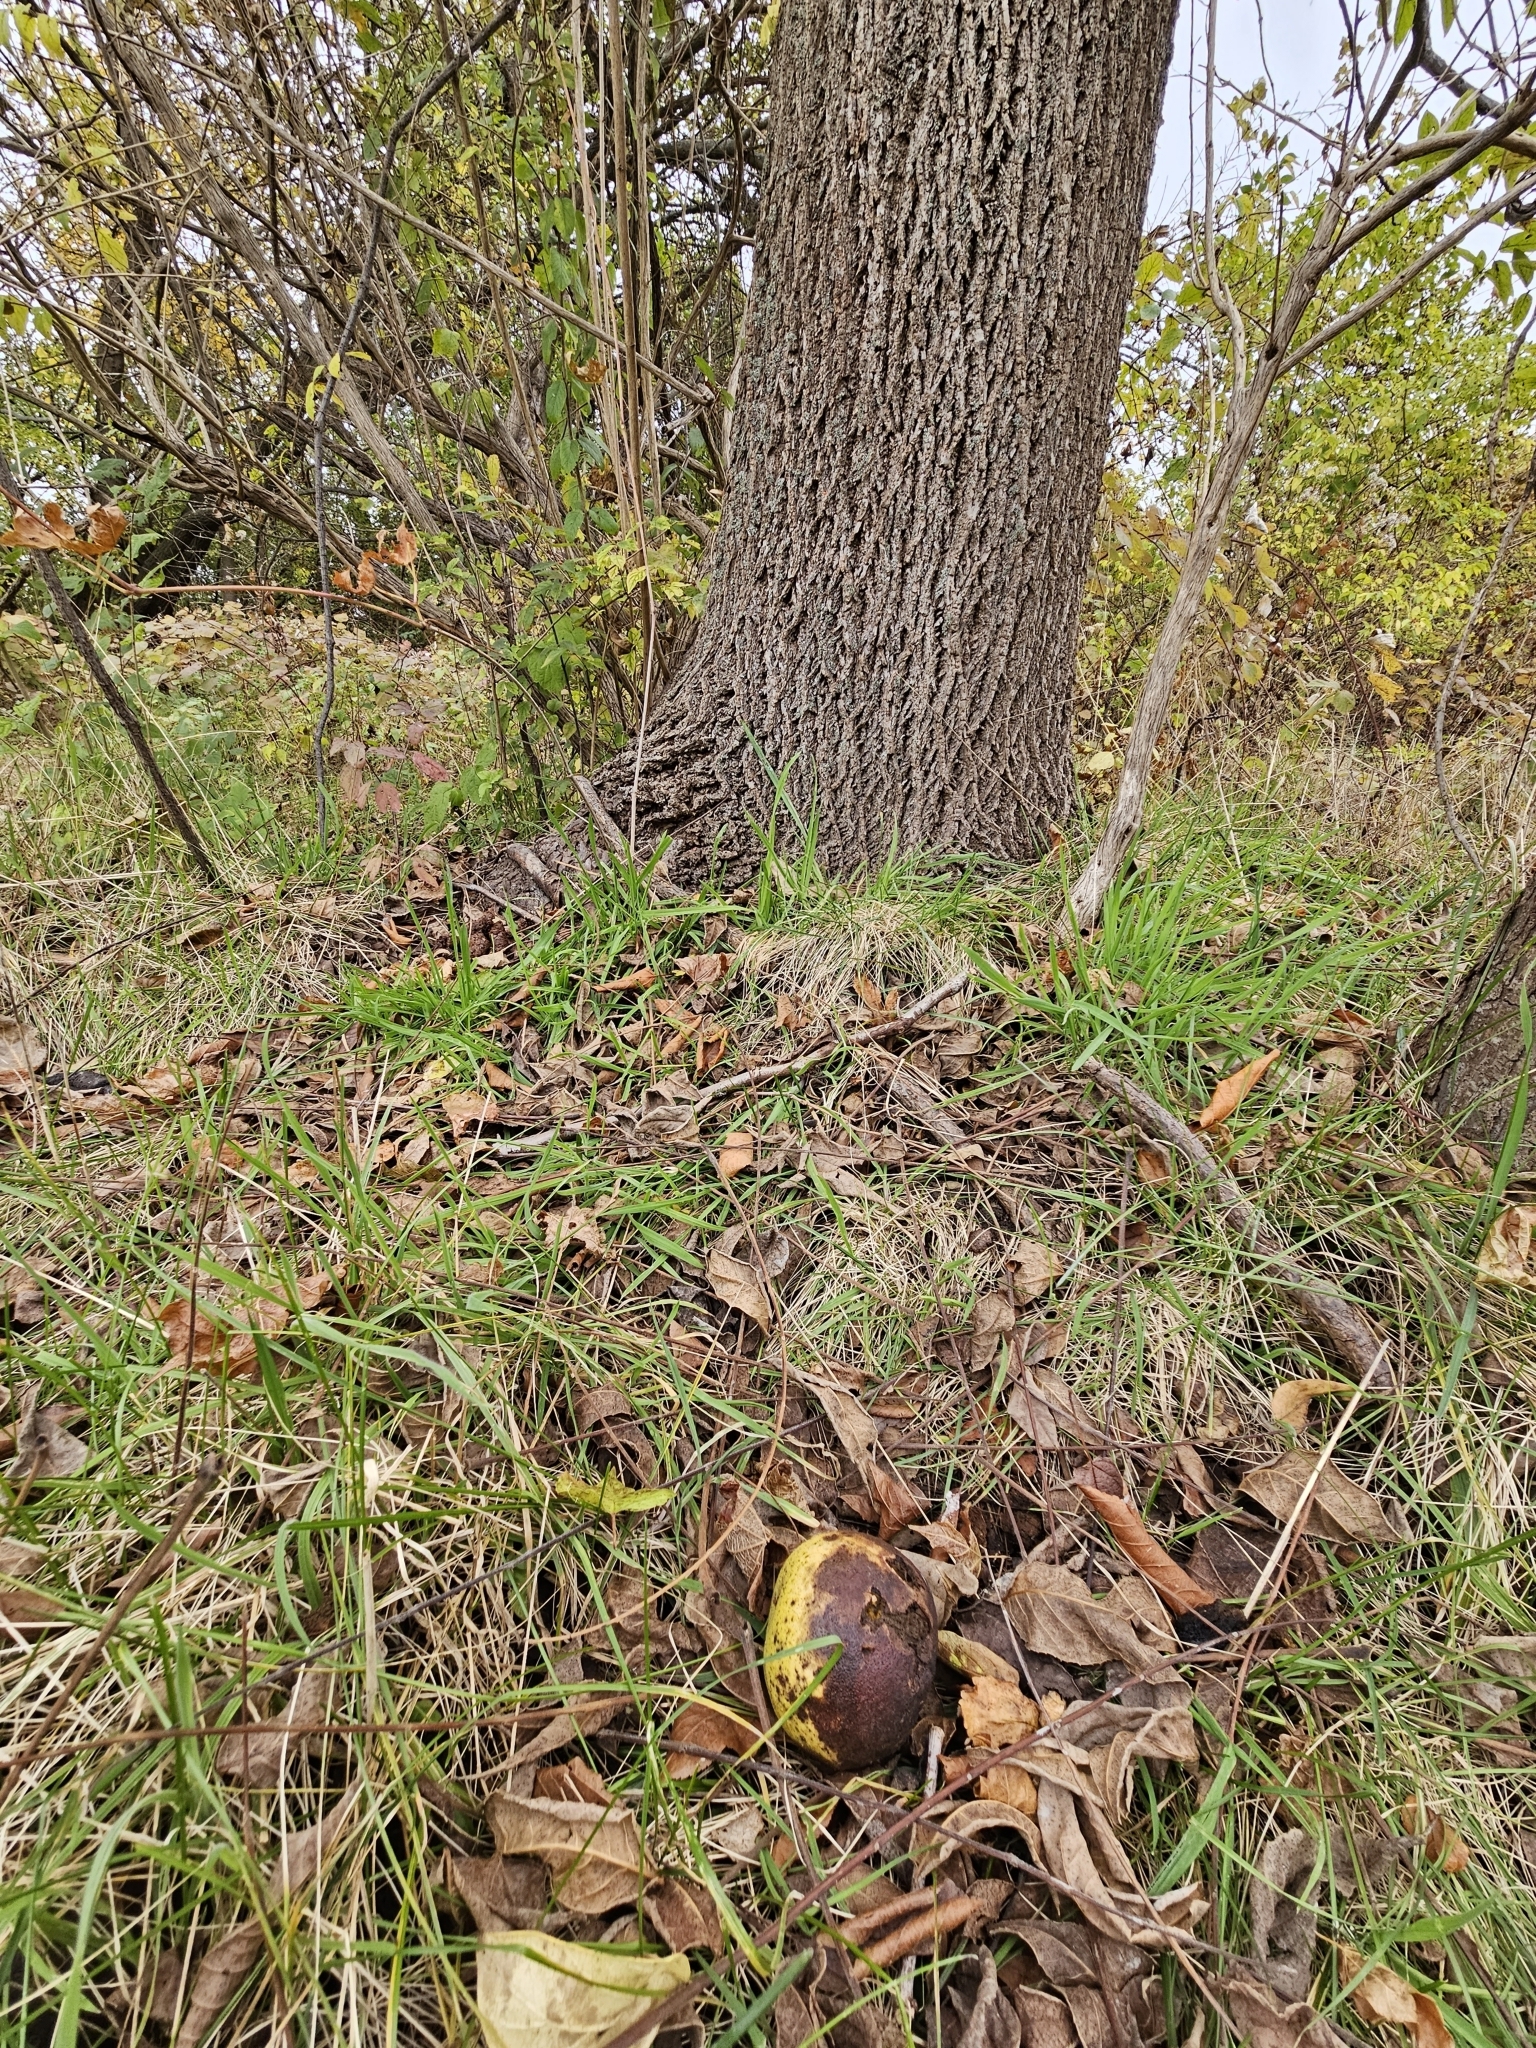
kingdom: Plantae
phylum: Tracheophyta
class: Magnoliopsida
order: Fagales
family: Juglandaceae
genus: Juglans
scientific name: Juglans nigra
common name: Black walnut
